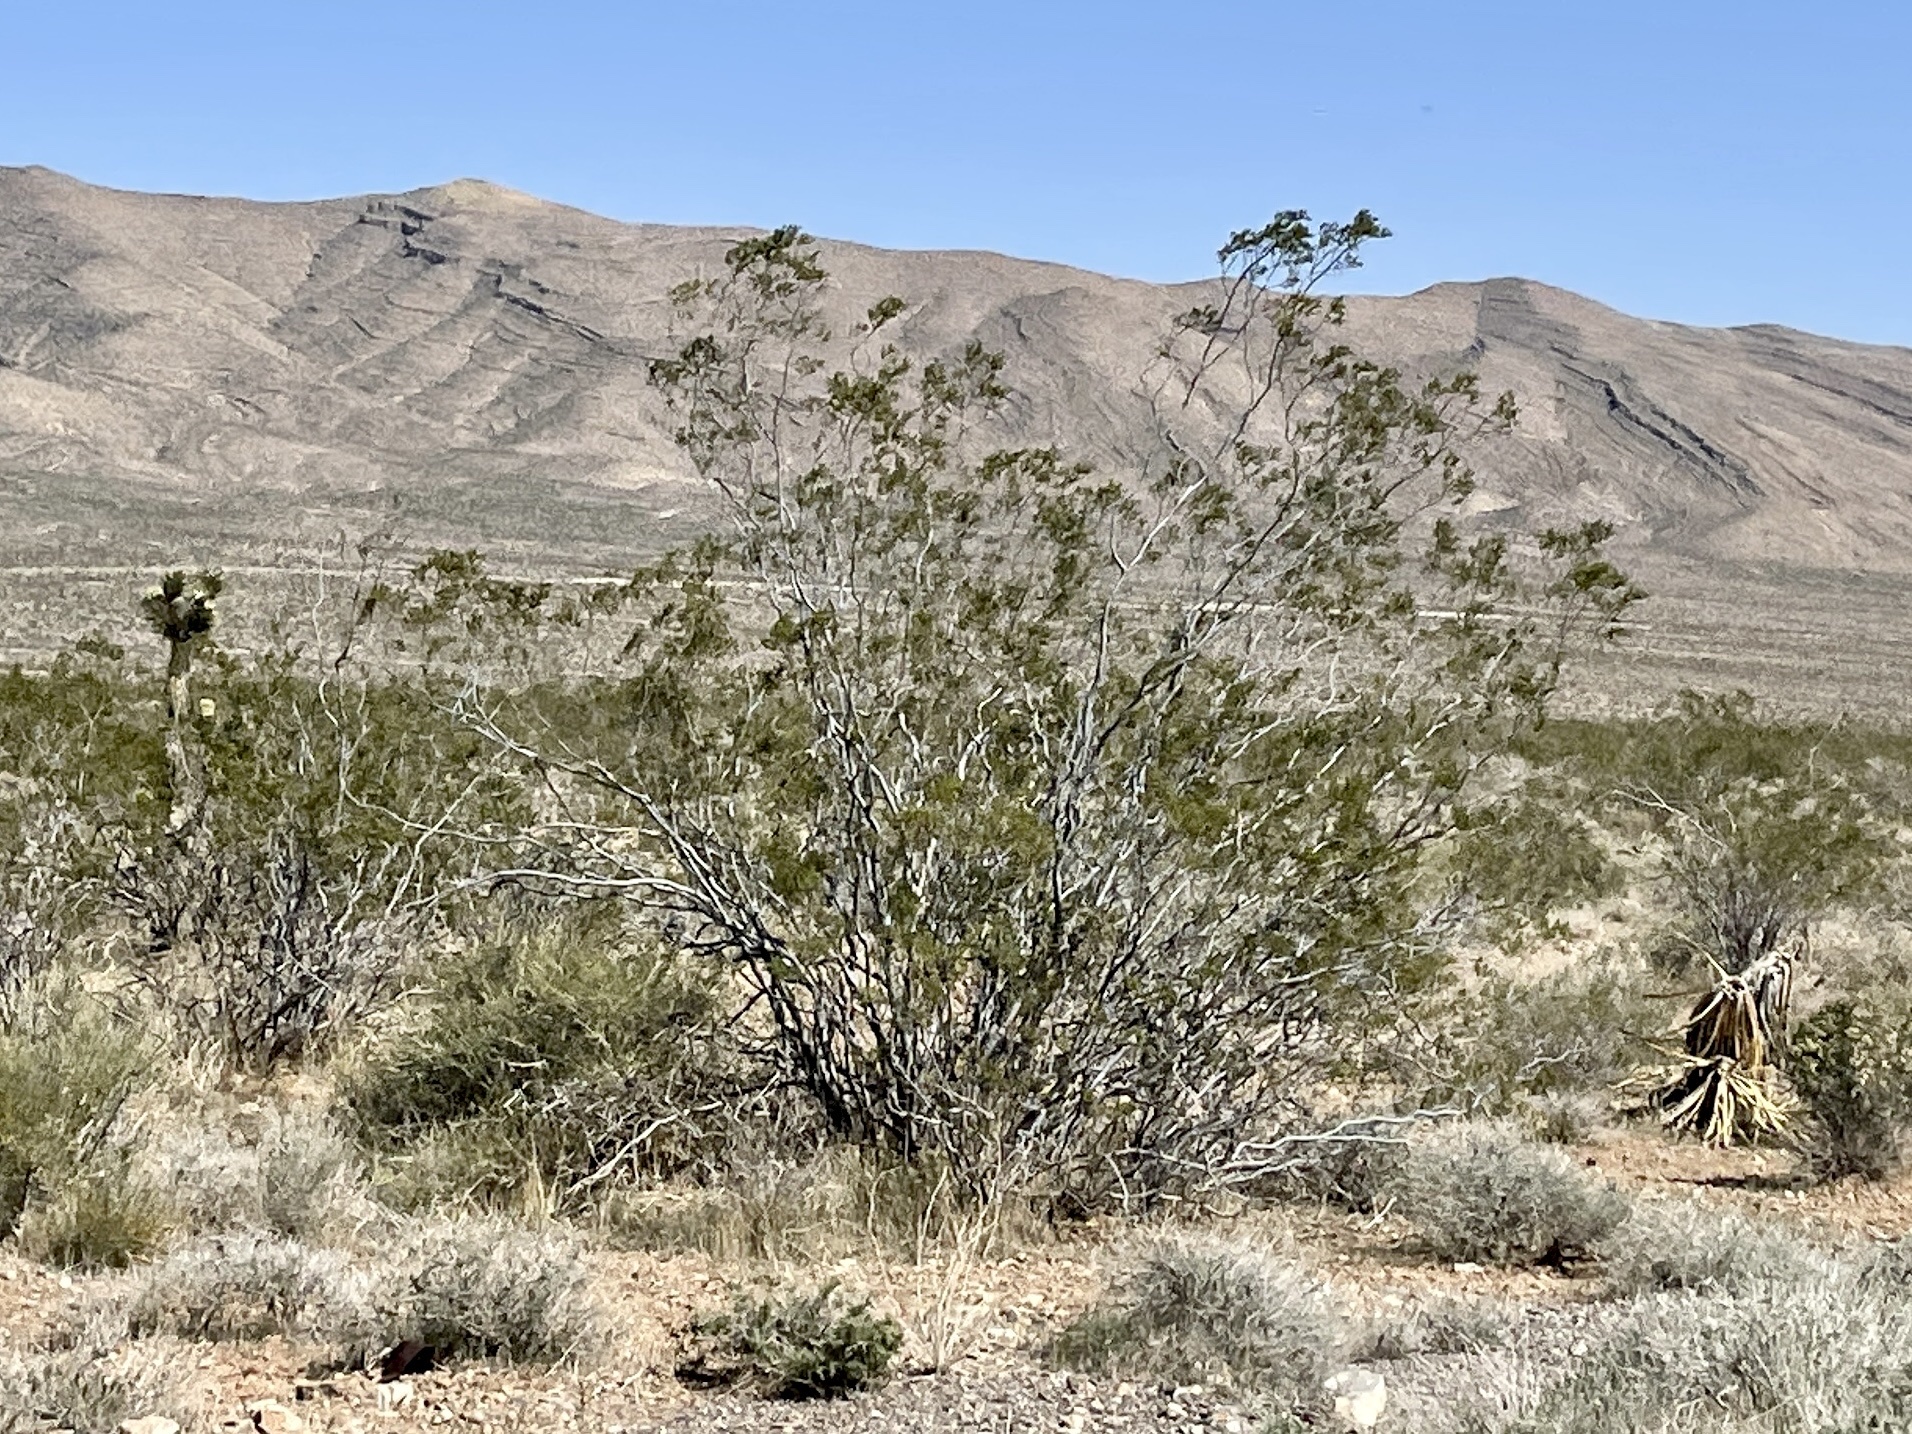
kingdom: Plantae
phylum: Tracheophyta
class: Magnoliopsida
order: Zygophyllales
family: Zygophyllaceae
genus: Larrea
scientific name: Larrea tridentata
